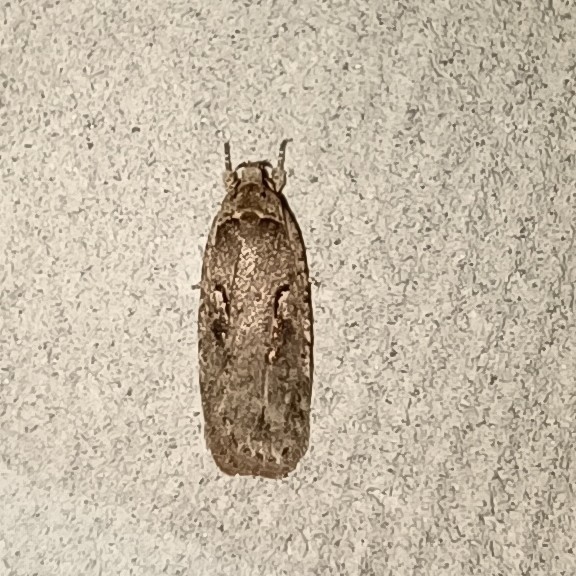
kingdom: Animalia
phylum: Arthropoda
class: Insecta
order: Lepidoptera
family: Depressariidae
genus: Agonopterix
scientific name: Agonopterix ocellana
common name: Red-letter flat-body
